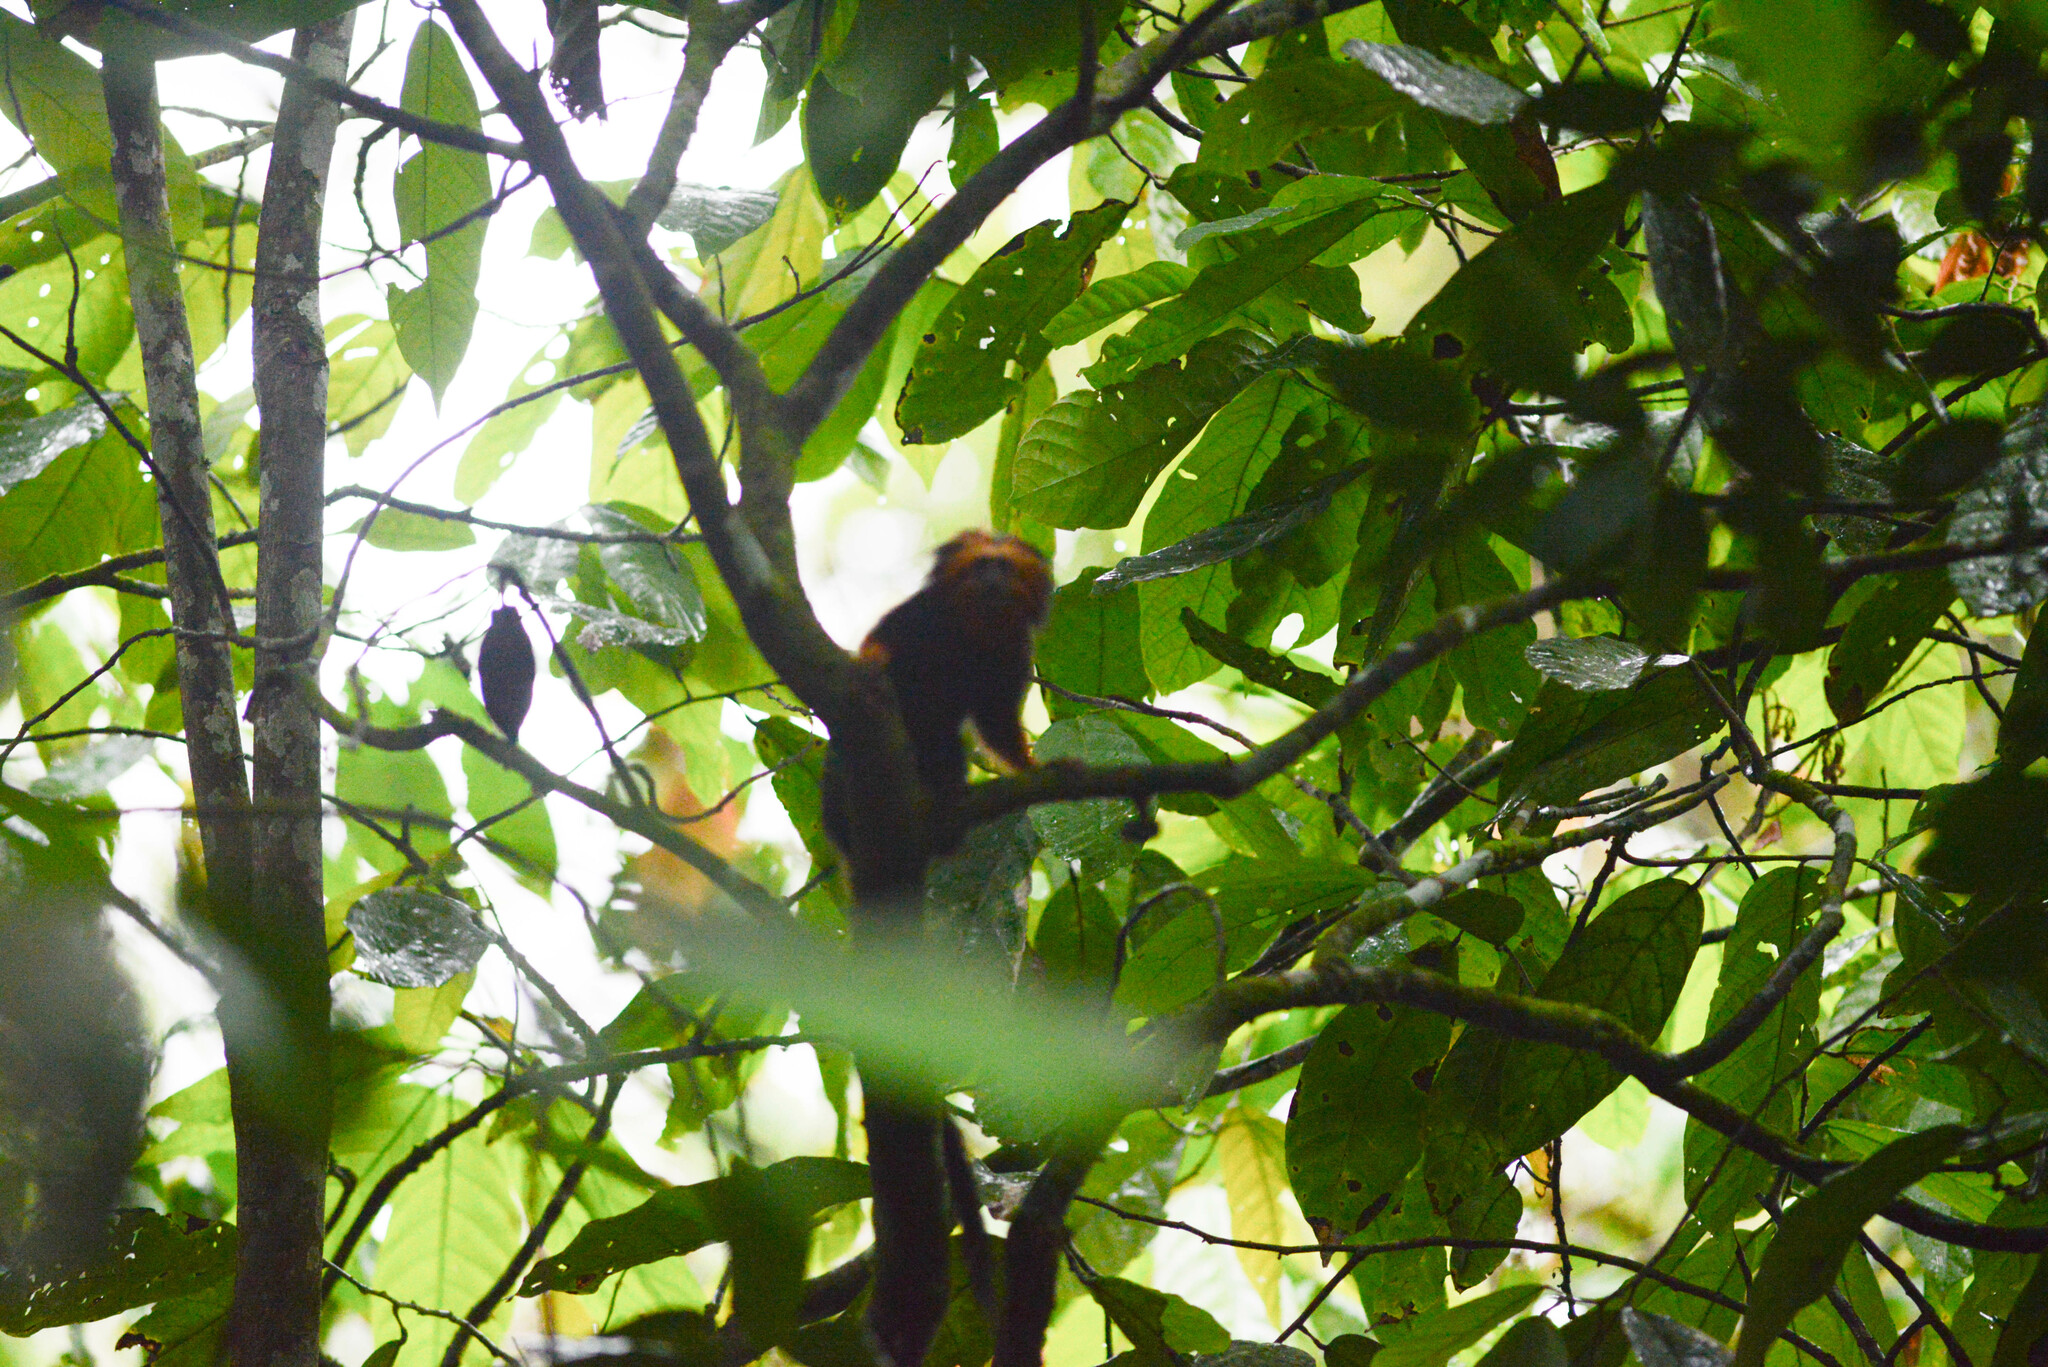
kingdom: Animalia
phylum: Chordata
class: Mammalia
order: Primates
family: Callitrichidae
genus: Leontopithecus
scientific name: Leontopithecus chrysomelas
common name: Golden-headed lion tamarin
